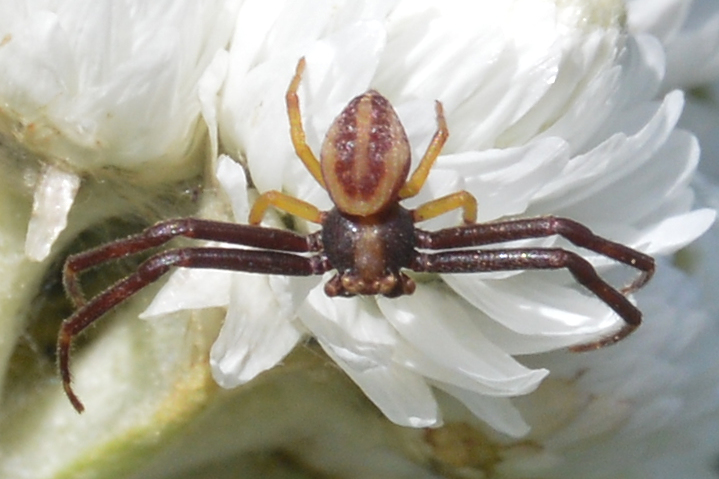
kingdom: Animalia
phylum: Arthropoda
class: Arachnida
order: Araneae
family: Thomisidae
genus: Misumena
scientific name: Misumena vatia
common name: Goldenrod crab spider
